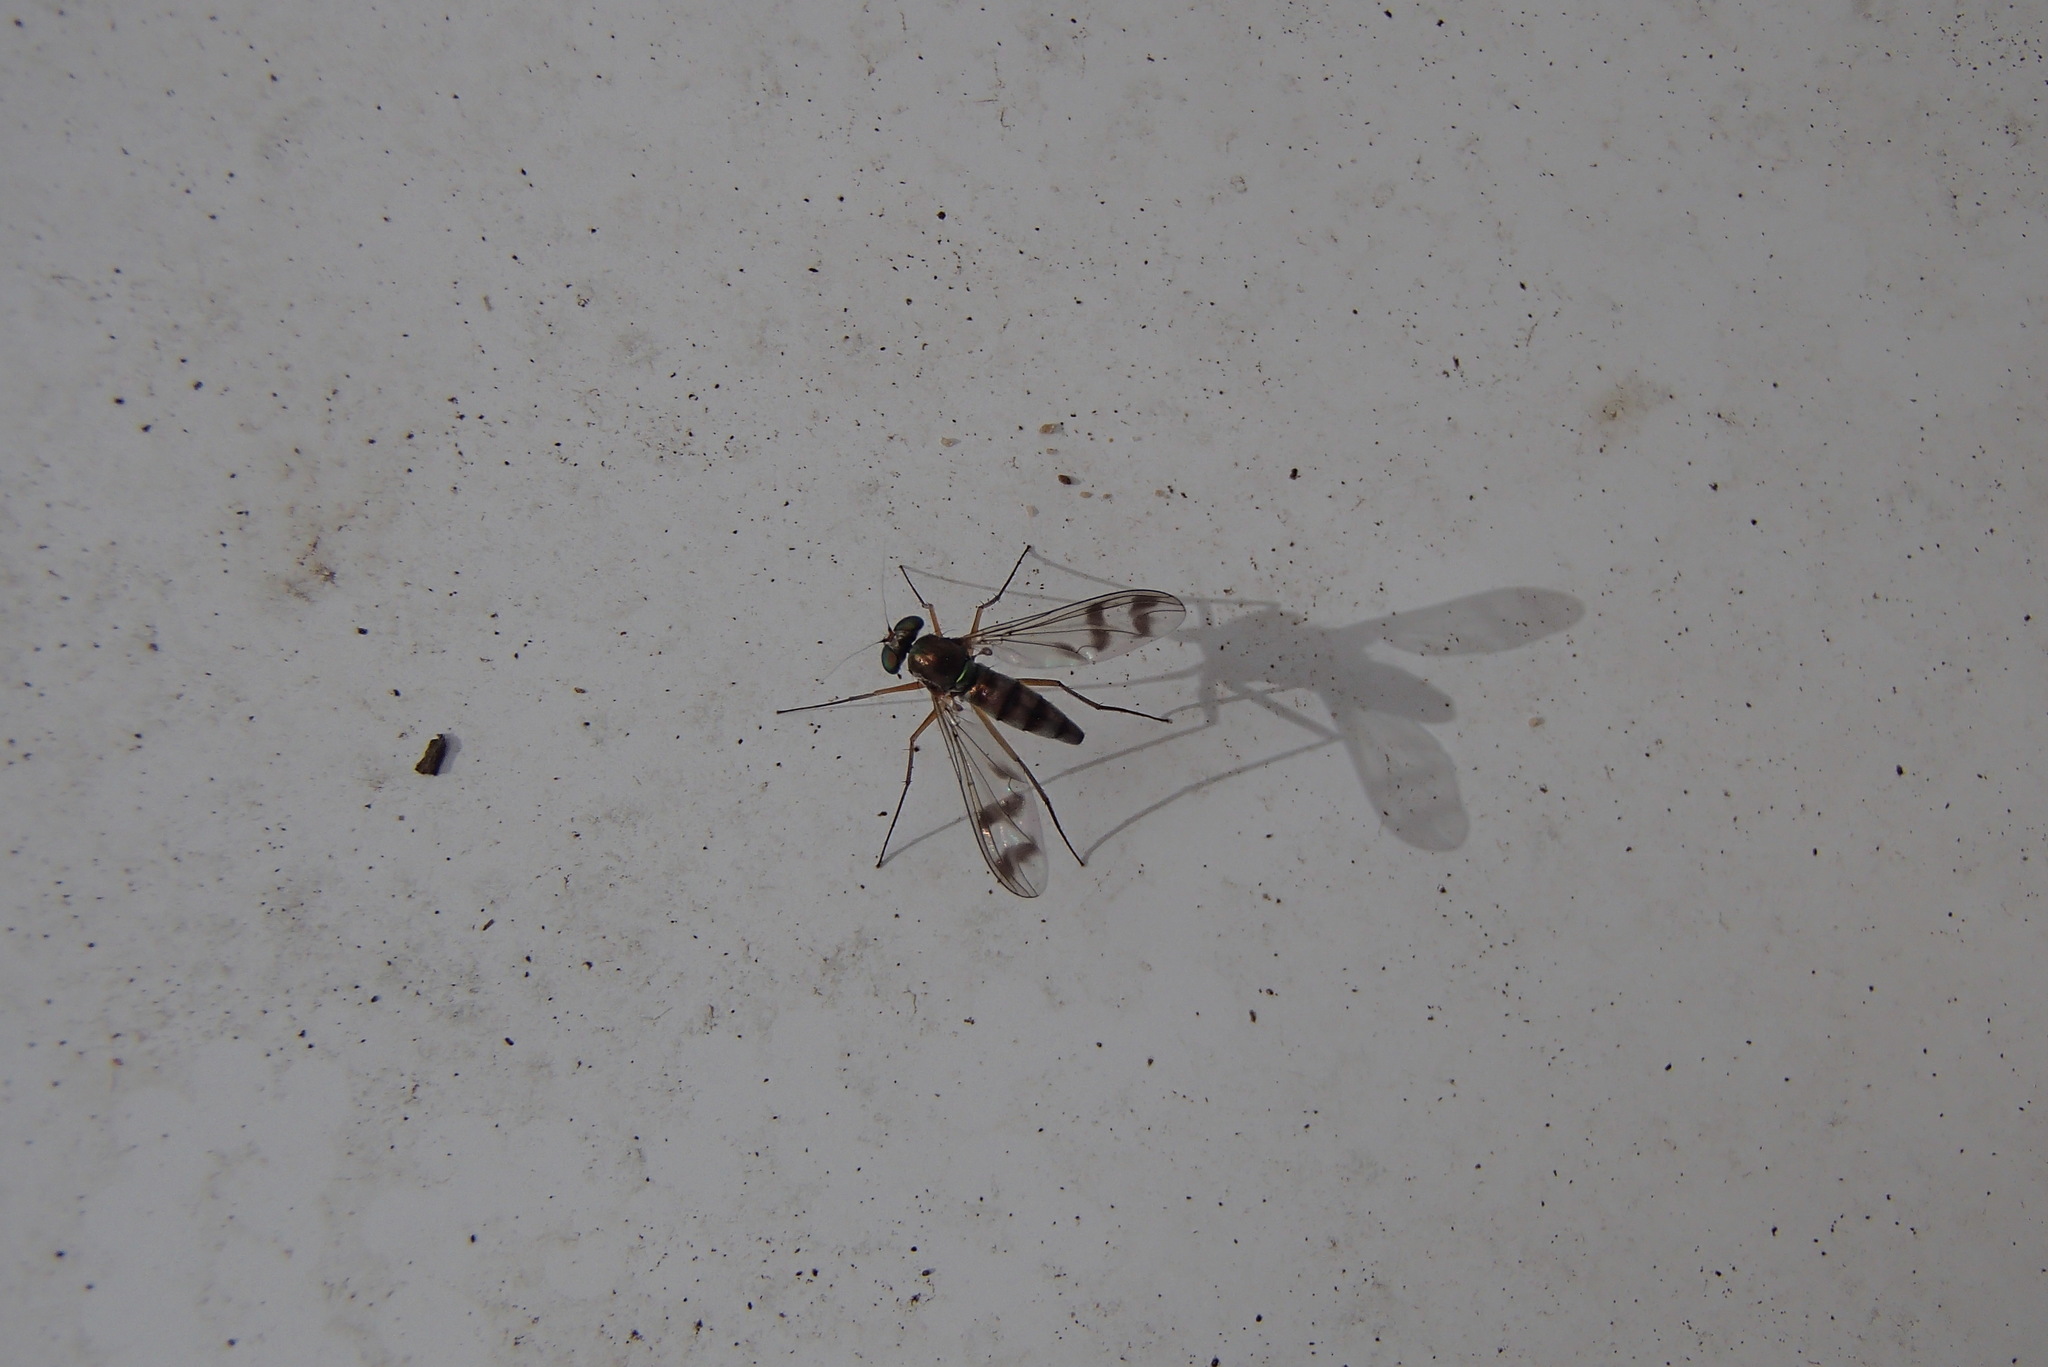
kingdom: Animalia
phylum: Arthropoda
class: Insecta
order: Diptera
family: Dolichopodidae
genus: Heteropsilopus
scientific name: Heteropsilopus squamifer
